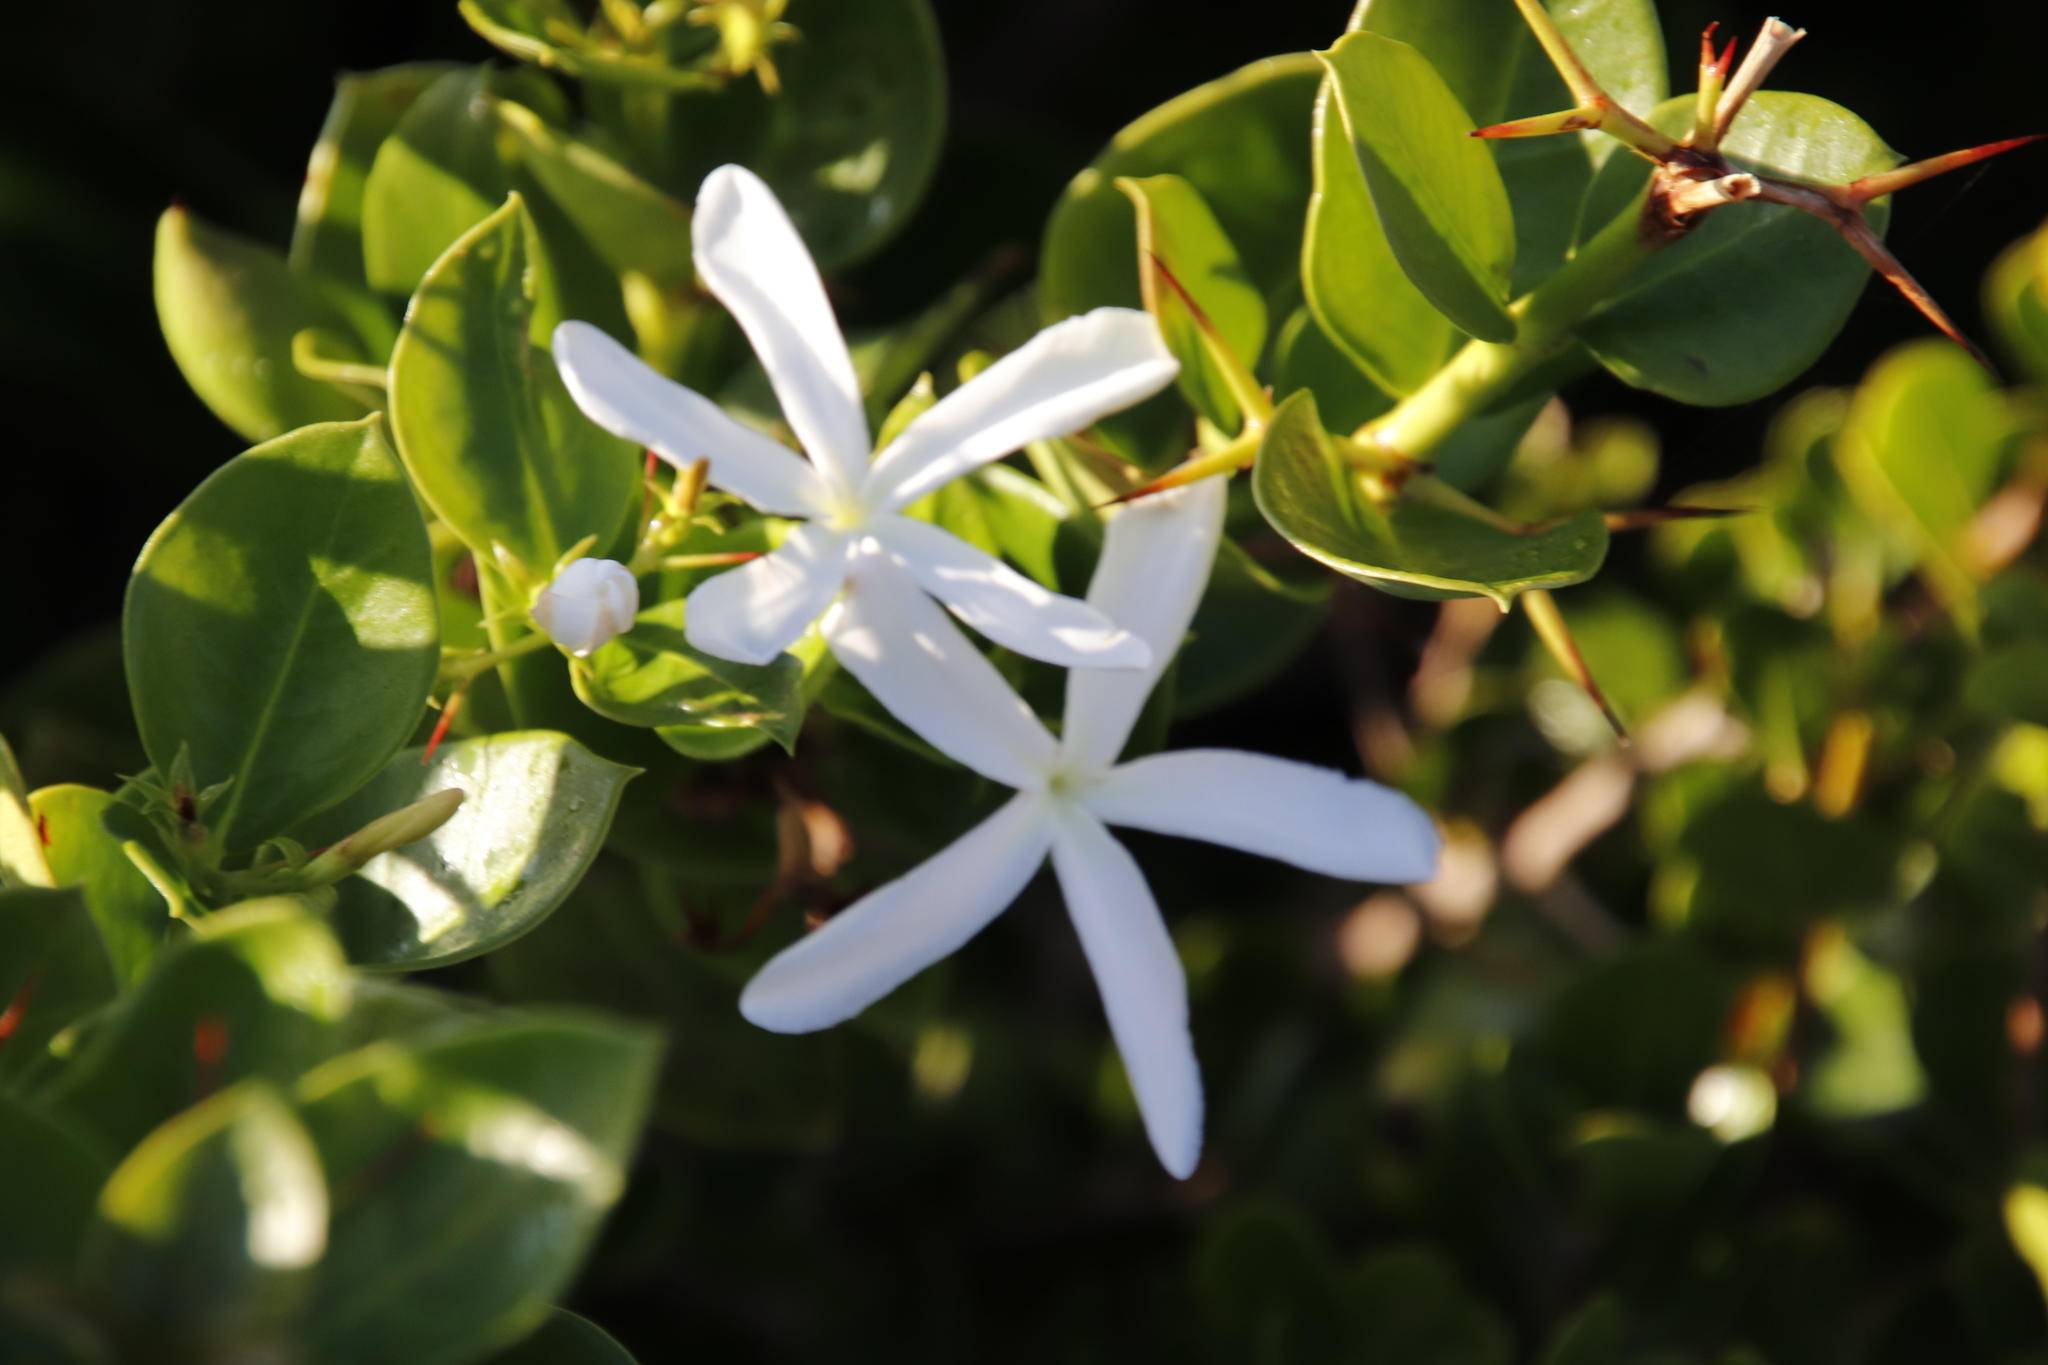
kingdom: Plantae
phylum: Tracheophyta
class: Magnoliopsida
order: Gentianales
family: Apocynaceae
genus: Carissa
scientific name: Carissa macrocarpa
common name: Natal plum
